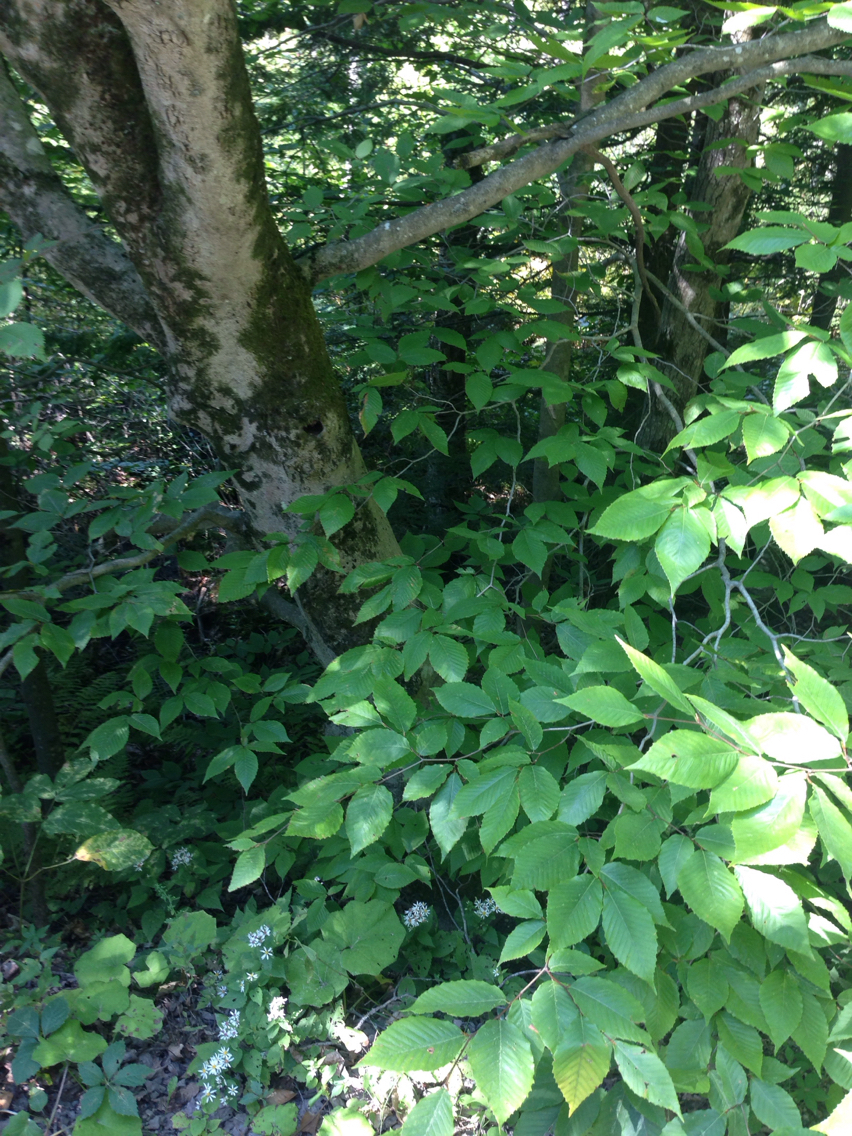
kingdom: Plantae
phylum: Tracheophyta
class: Magnoliopsida
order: Fagales
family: Fagaceae
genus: Fagus
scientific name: Fagus grandifolia
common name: American beech
